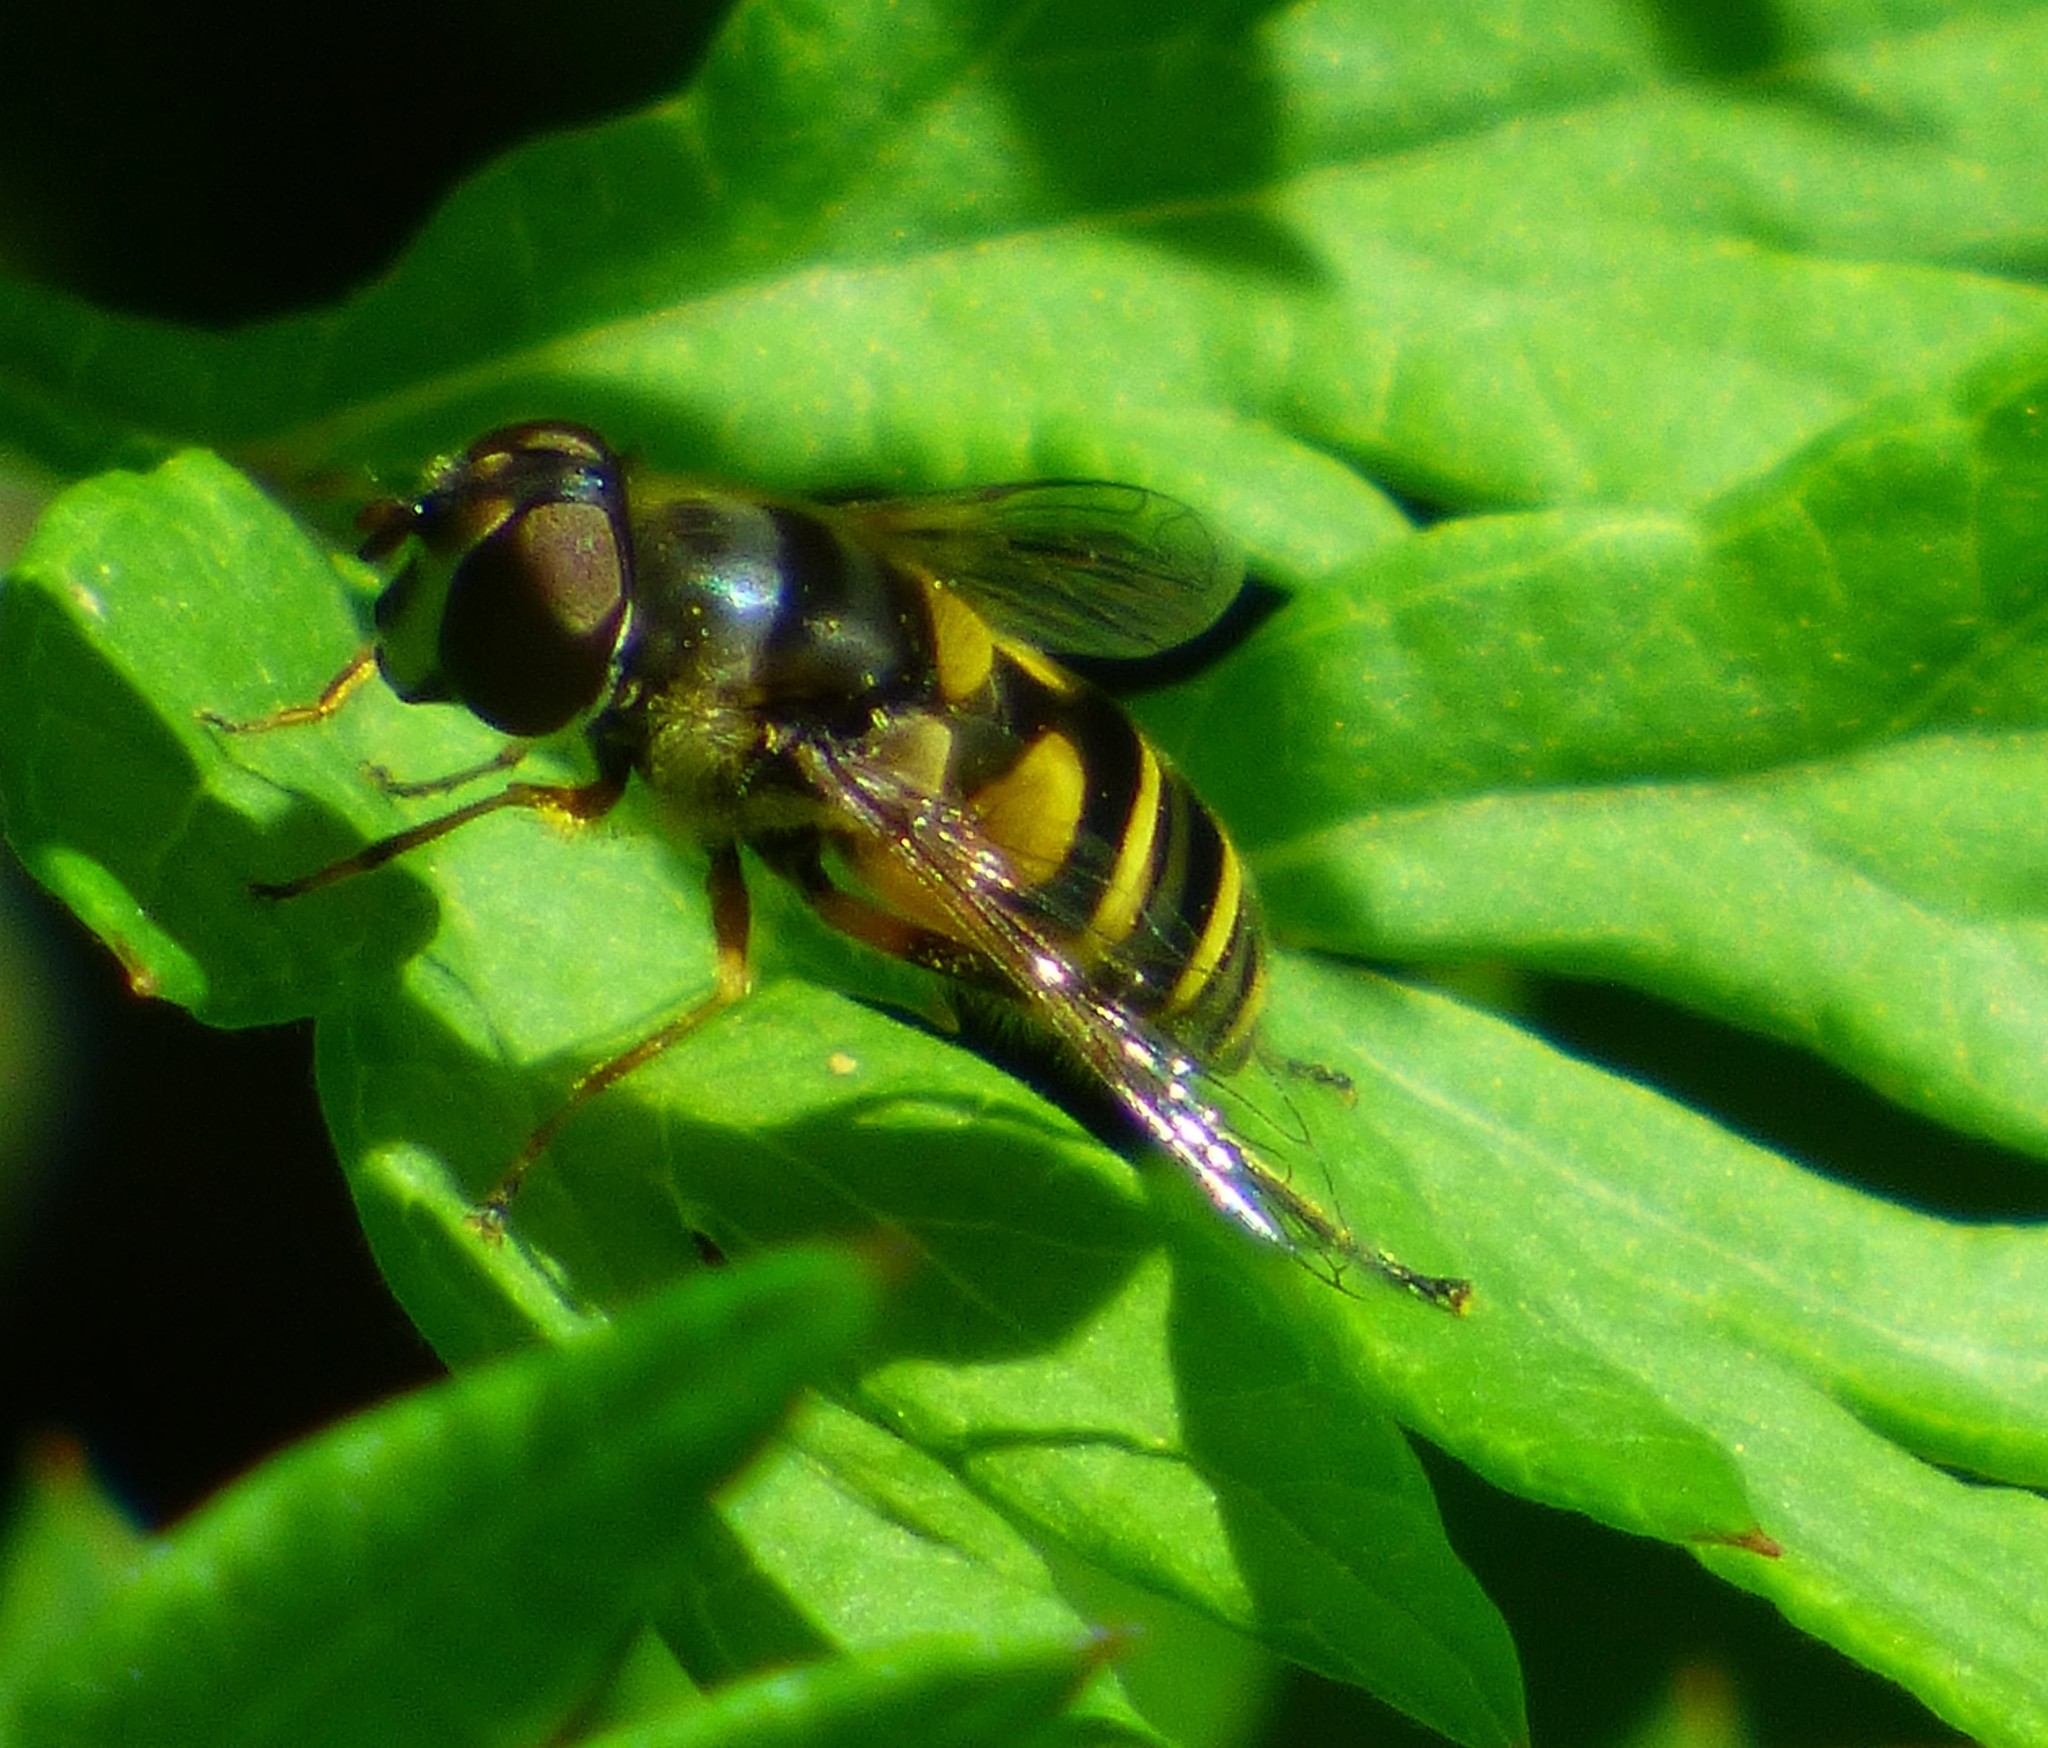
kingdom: Animalia
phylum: Arthropoda
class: Insecta
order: Diptera
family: Syrphidae
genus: Eristalis
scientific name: Eristalis transversa
